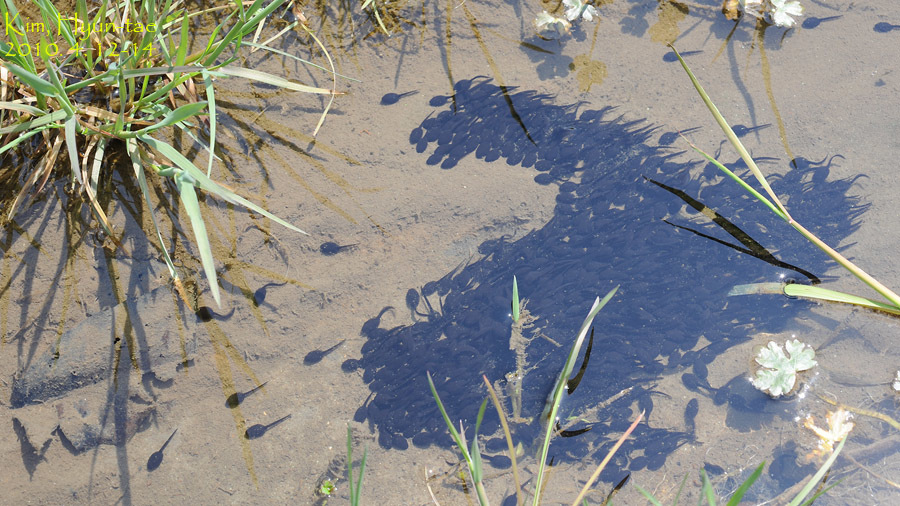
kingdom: Animalia
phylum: Chordata
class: Amphibia
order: Anura
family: Bufonidae
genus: Bufo
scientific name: Bufo gargarizans
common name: Asiatic toad
